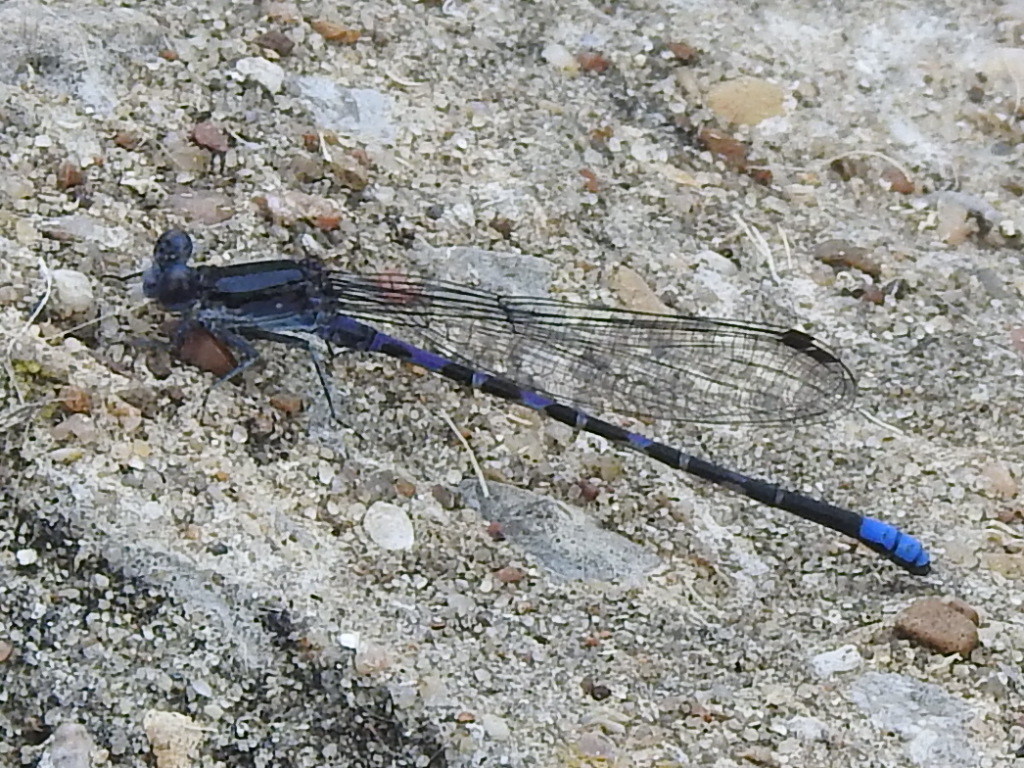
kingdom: Animalia
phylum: Arthropoda
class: Insecta
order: Odonata
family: Coenagrionidae
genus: Argia
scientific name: Argia immunda
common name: Kiowa dancer
